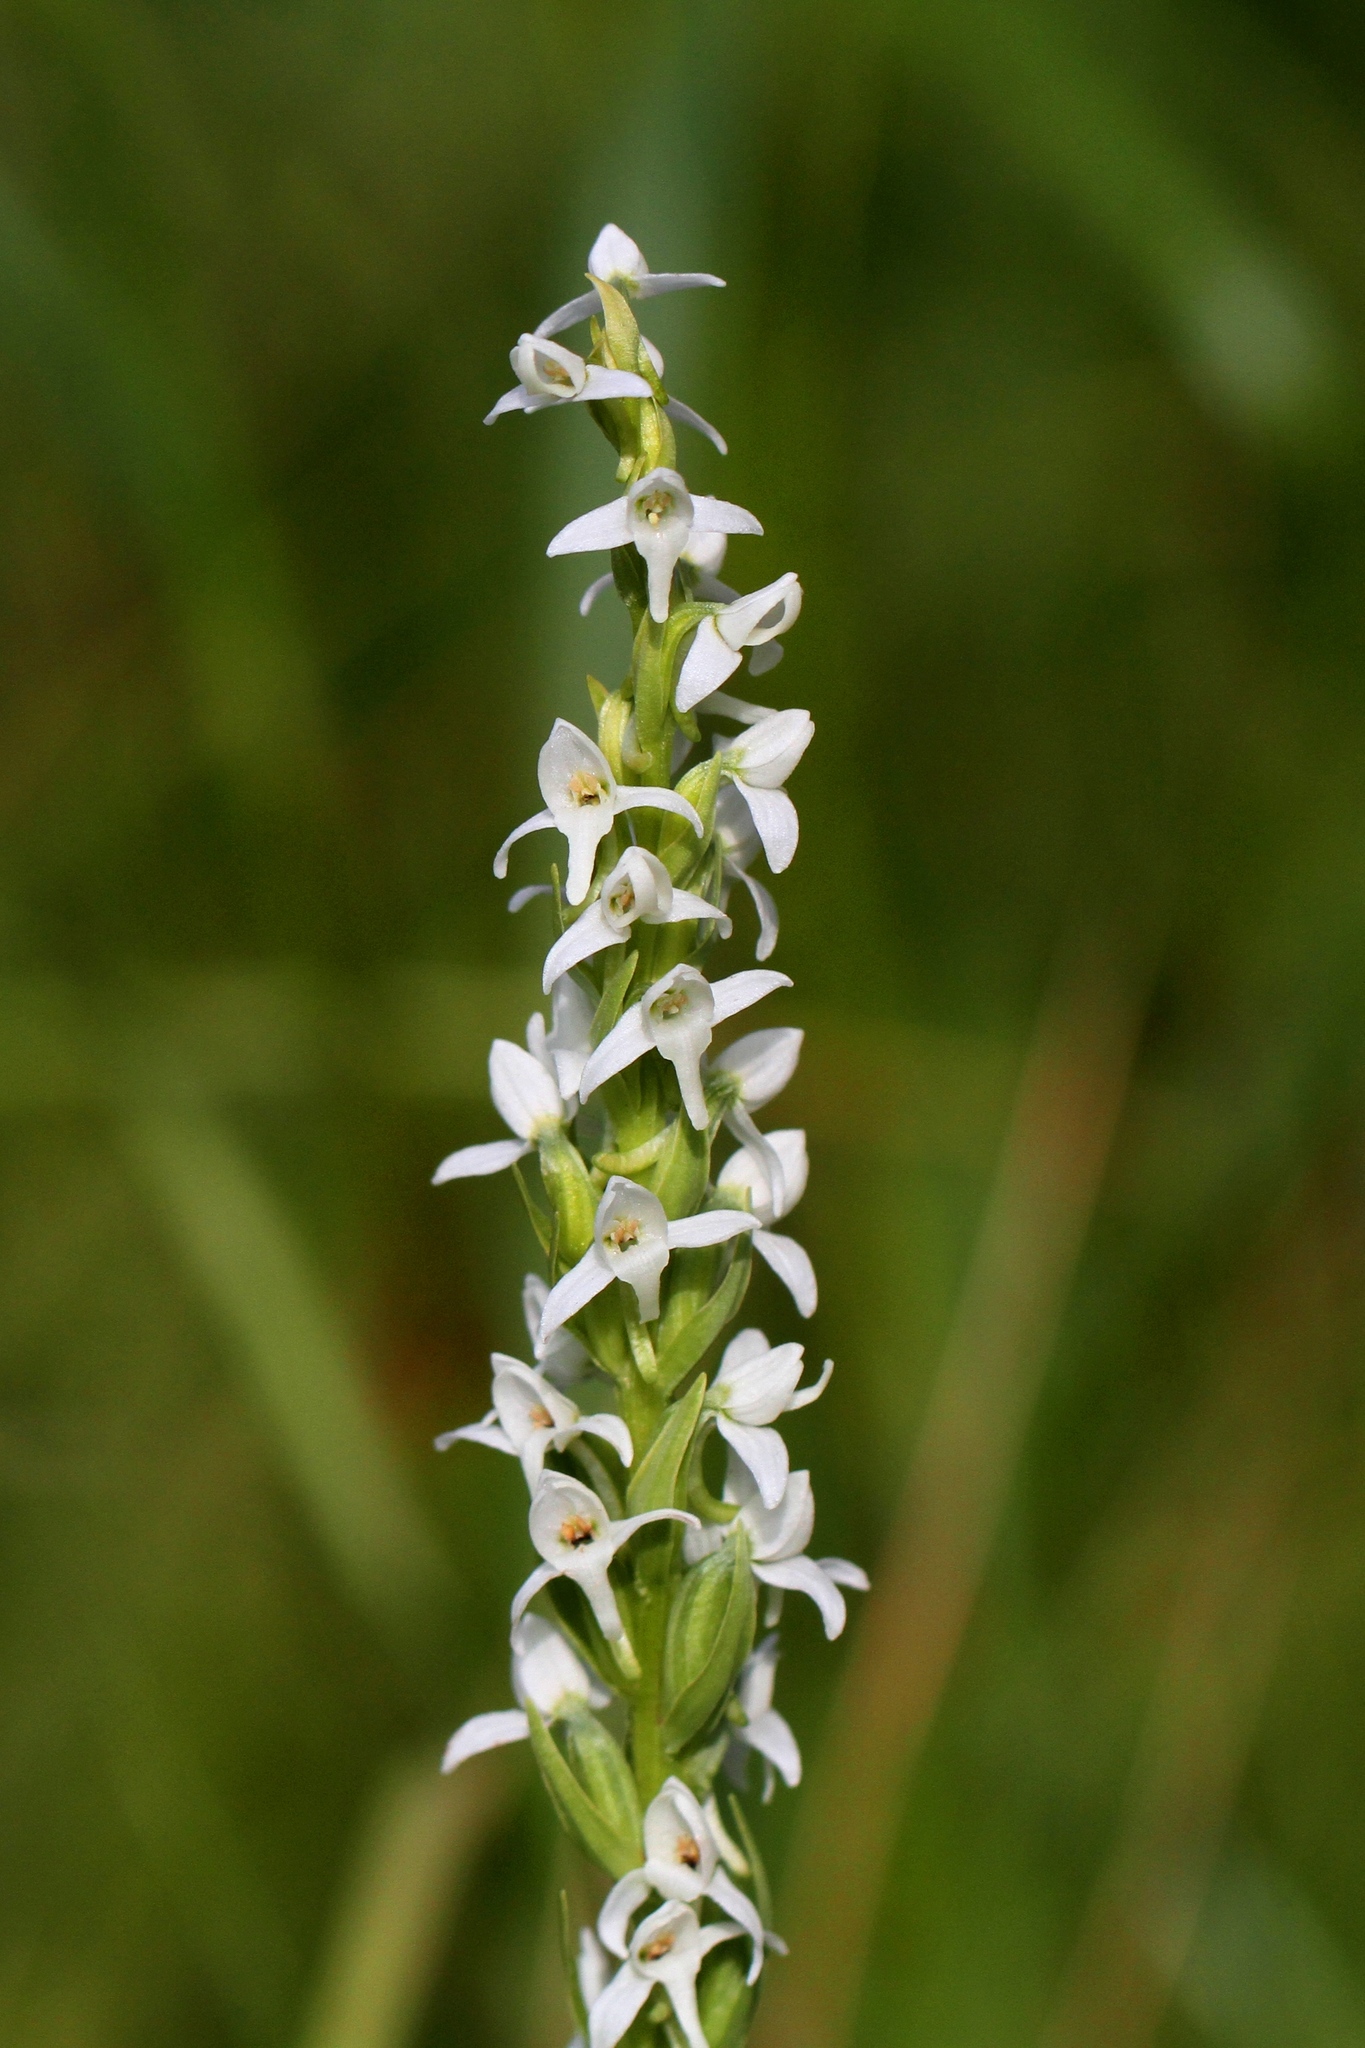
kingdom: Plantae
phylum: Tracheophyta
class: Liliopsida
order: Asparagales
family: Orchidaceae
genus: Platanthera
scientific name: Platanthera dilatata
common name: Bog candles
